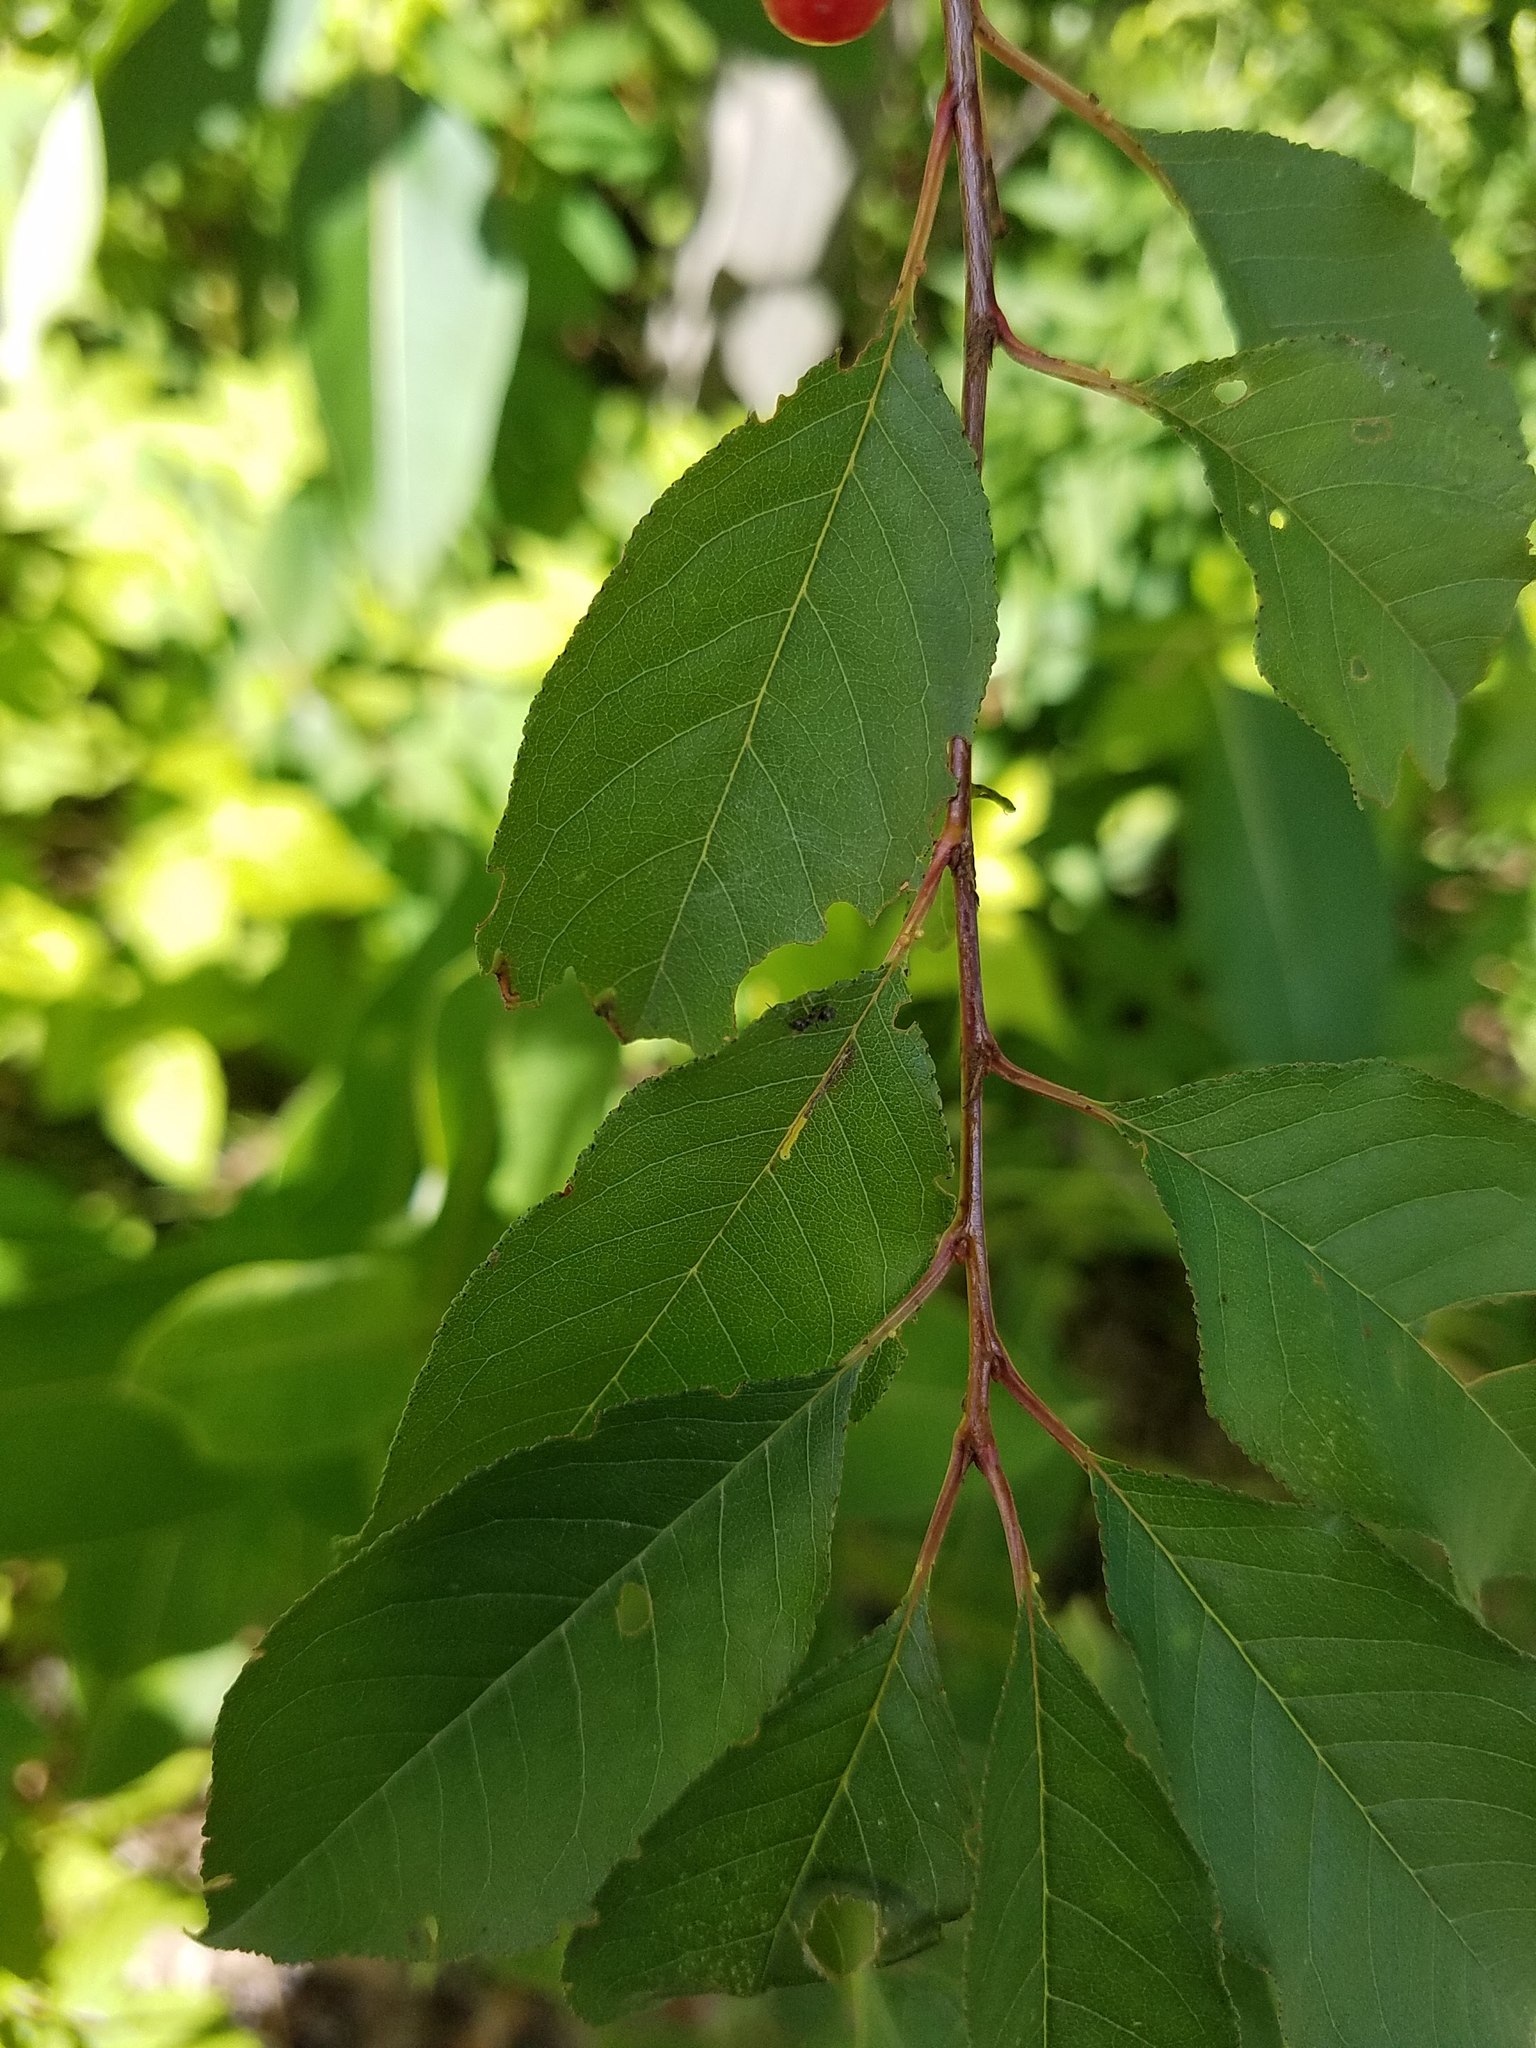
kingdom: Plantae
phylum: Tracheophyta
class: Magnoliopsida
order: Rosales
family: Rosaceae
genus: Prunus
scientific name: Prunus pensylvanica
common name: Pin cherry
